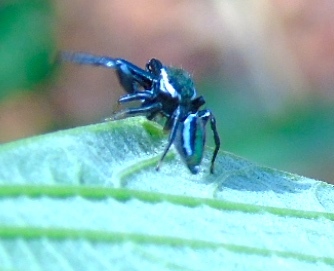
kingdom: Animalia
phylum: Arthropoda
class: Arachnida
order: Araneae
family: Salticidae
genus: Paraphidippus
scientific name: Paraphidippus aurantius
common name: Jumping spiders
